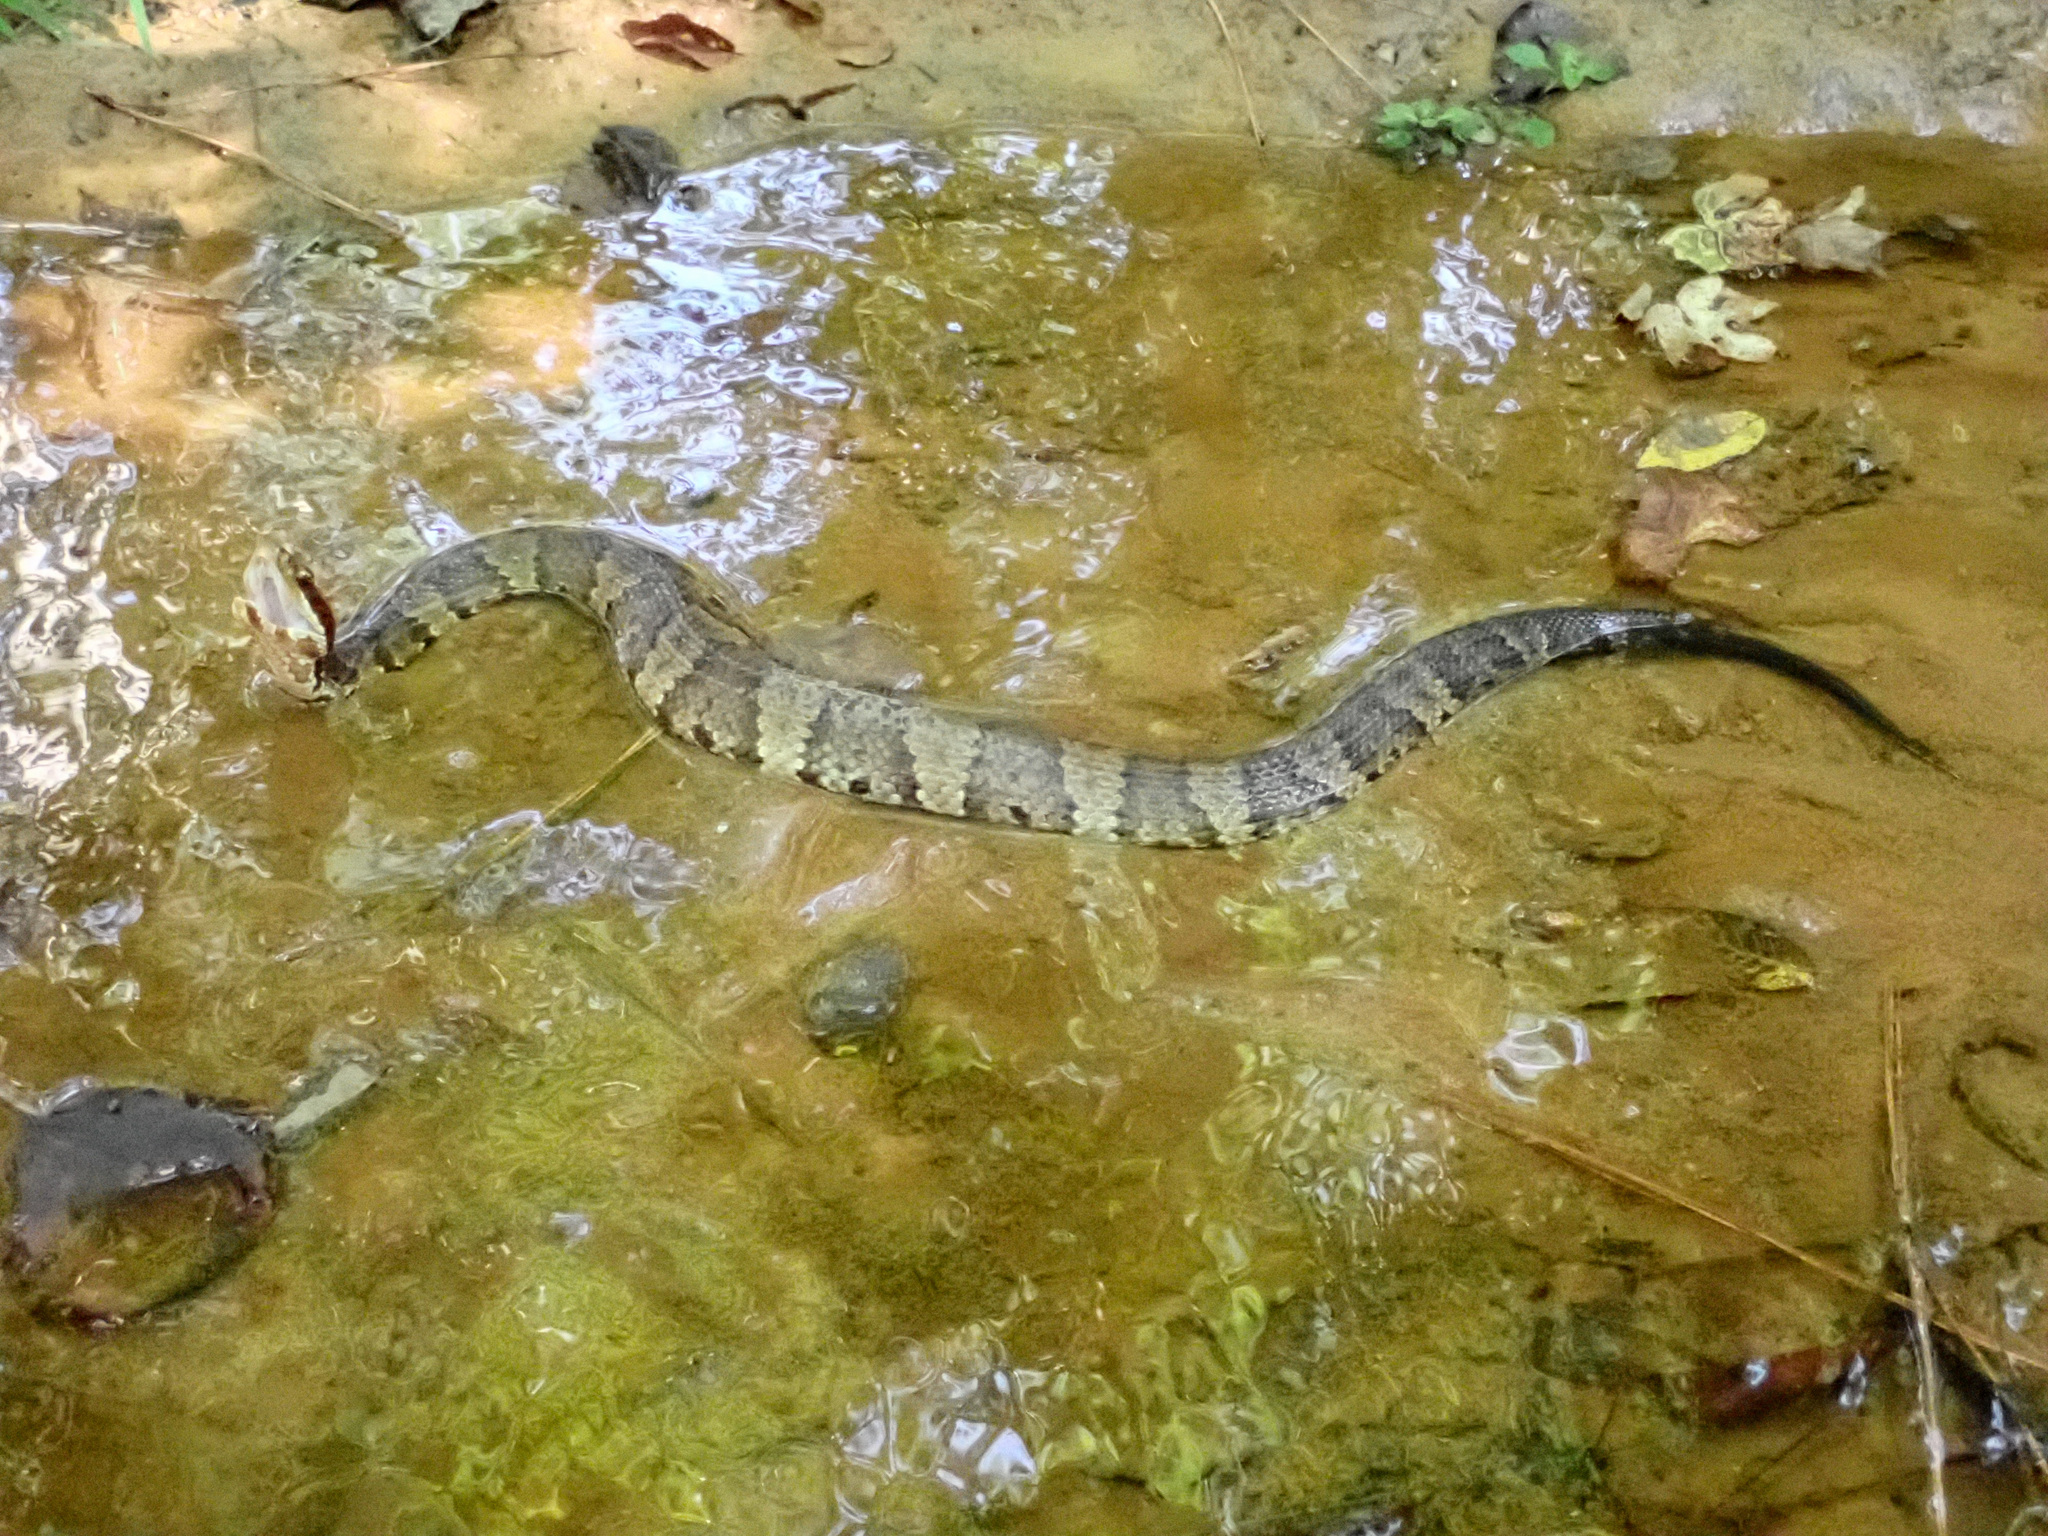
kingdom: Animalia
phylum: Chordata
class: Squamata
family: Viperidae
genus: Agkistrodon
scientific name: Agkistrodon piscivorus
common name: Cottonmouth
